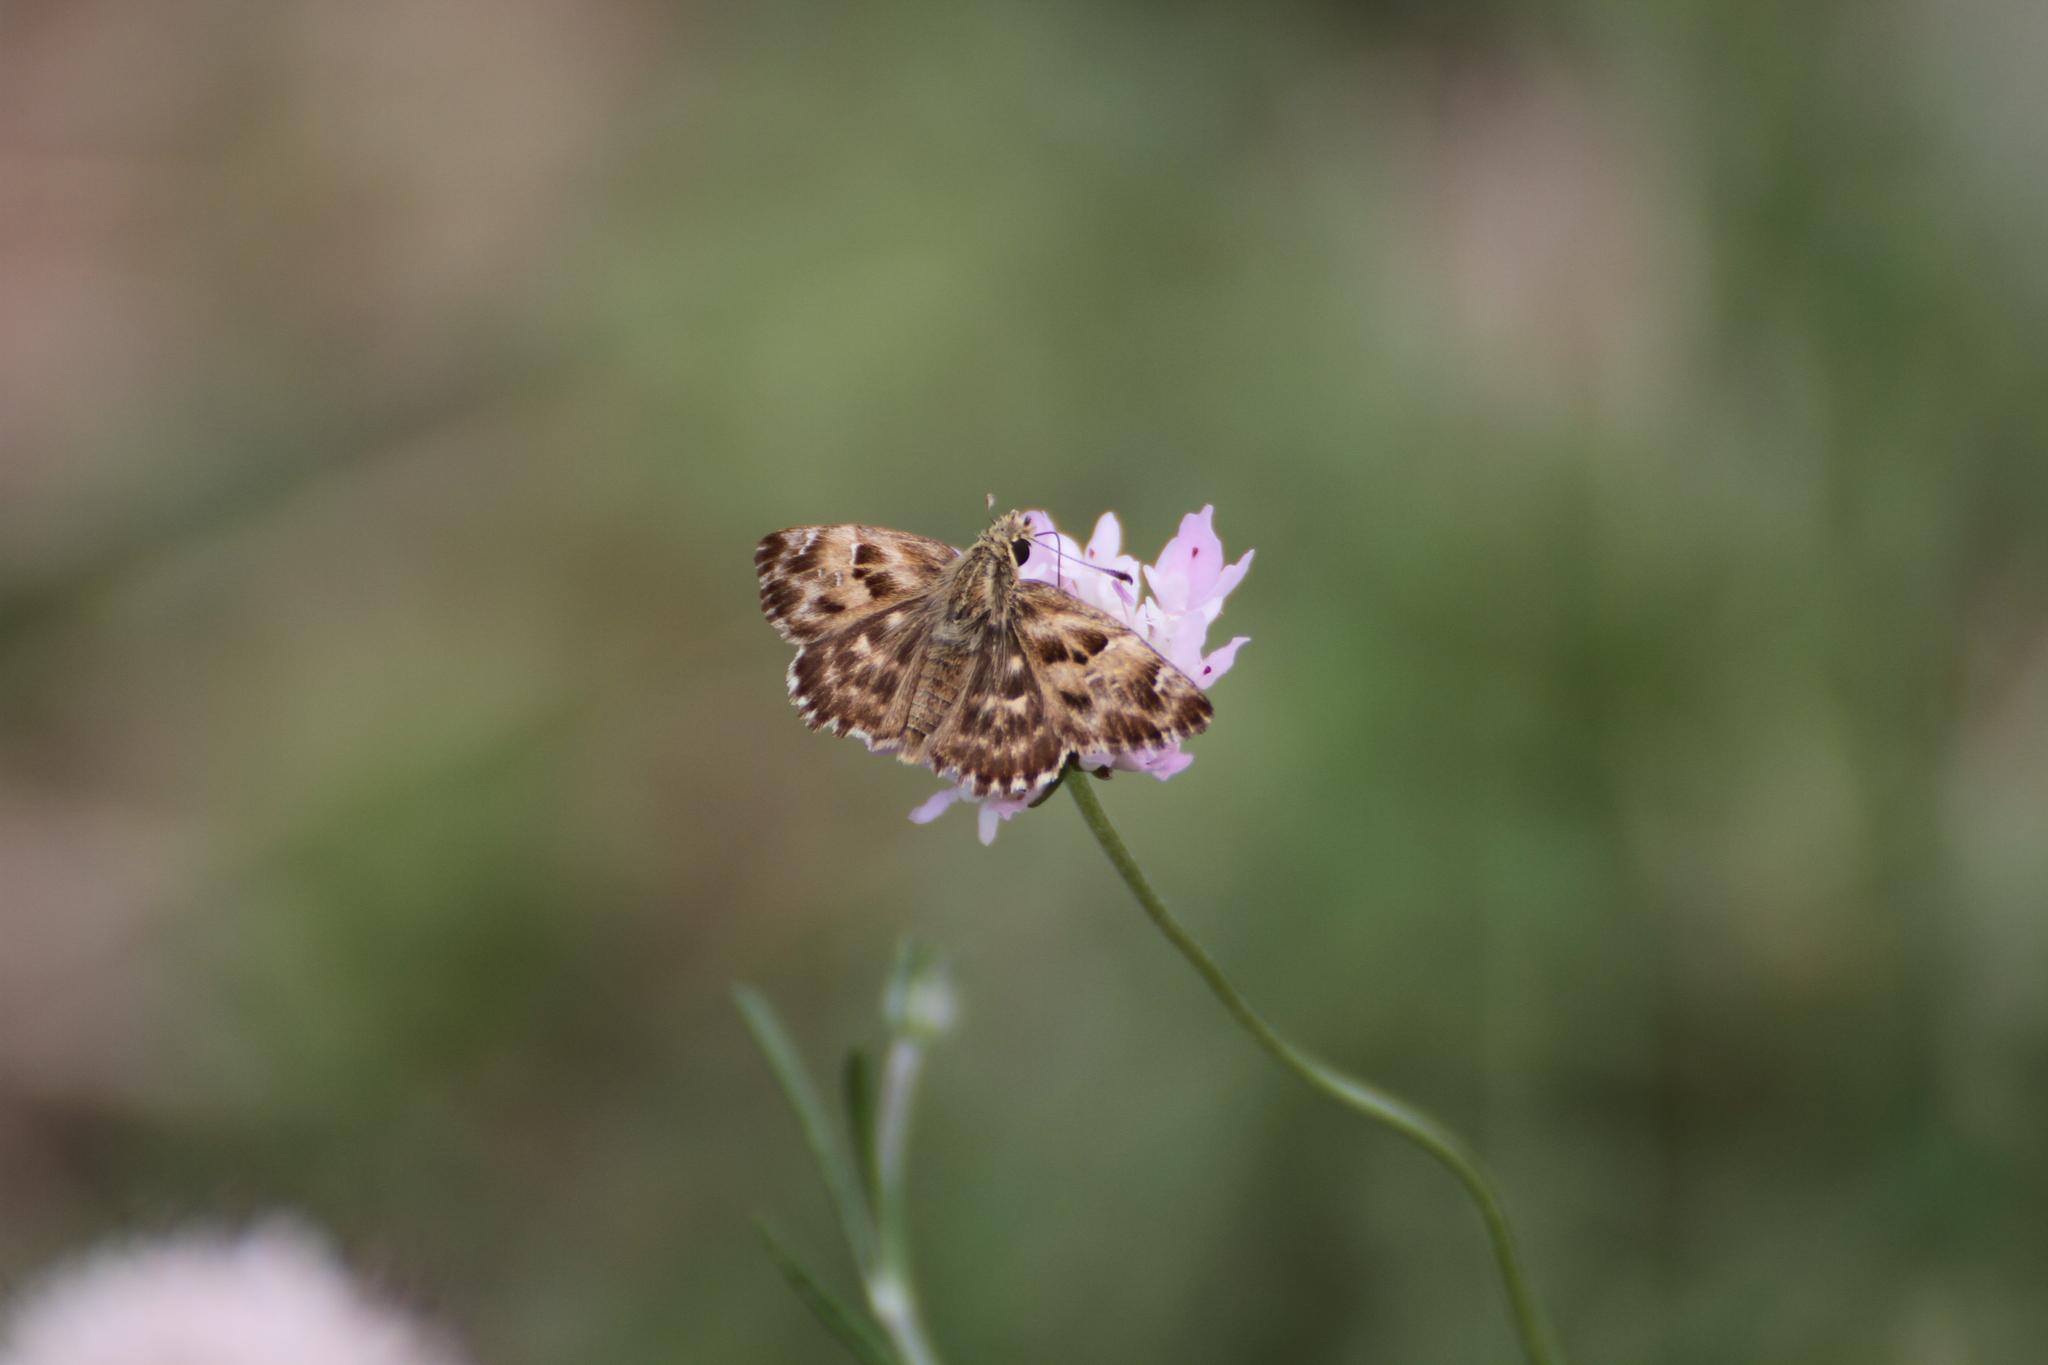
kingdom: Animalia
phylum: Arthropoda
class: Insecta
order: Lepidoptera
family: Hesperiidae
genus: Carcharodus
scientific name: Carcharodus alceae
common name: Mallow skipper
